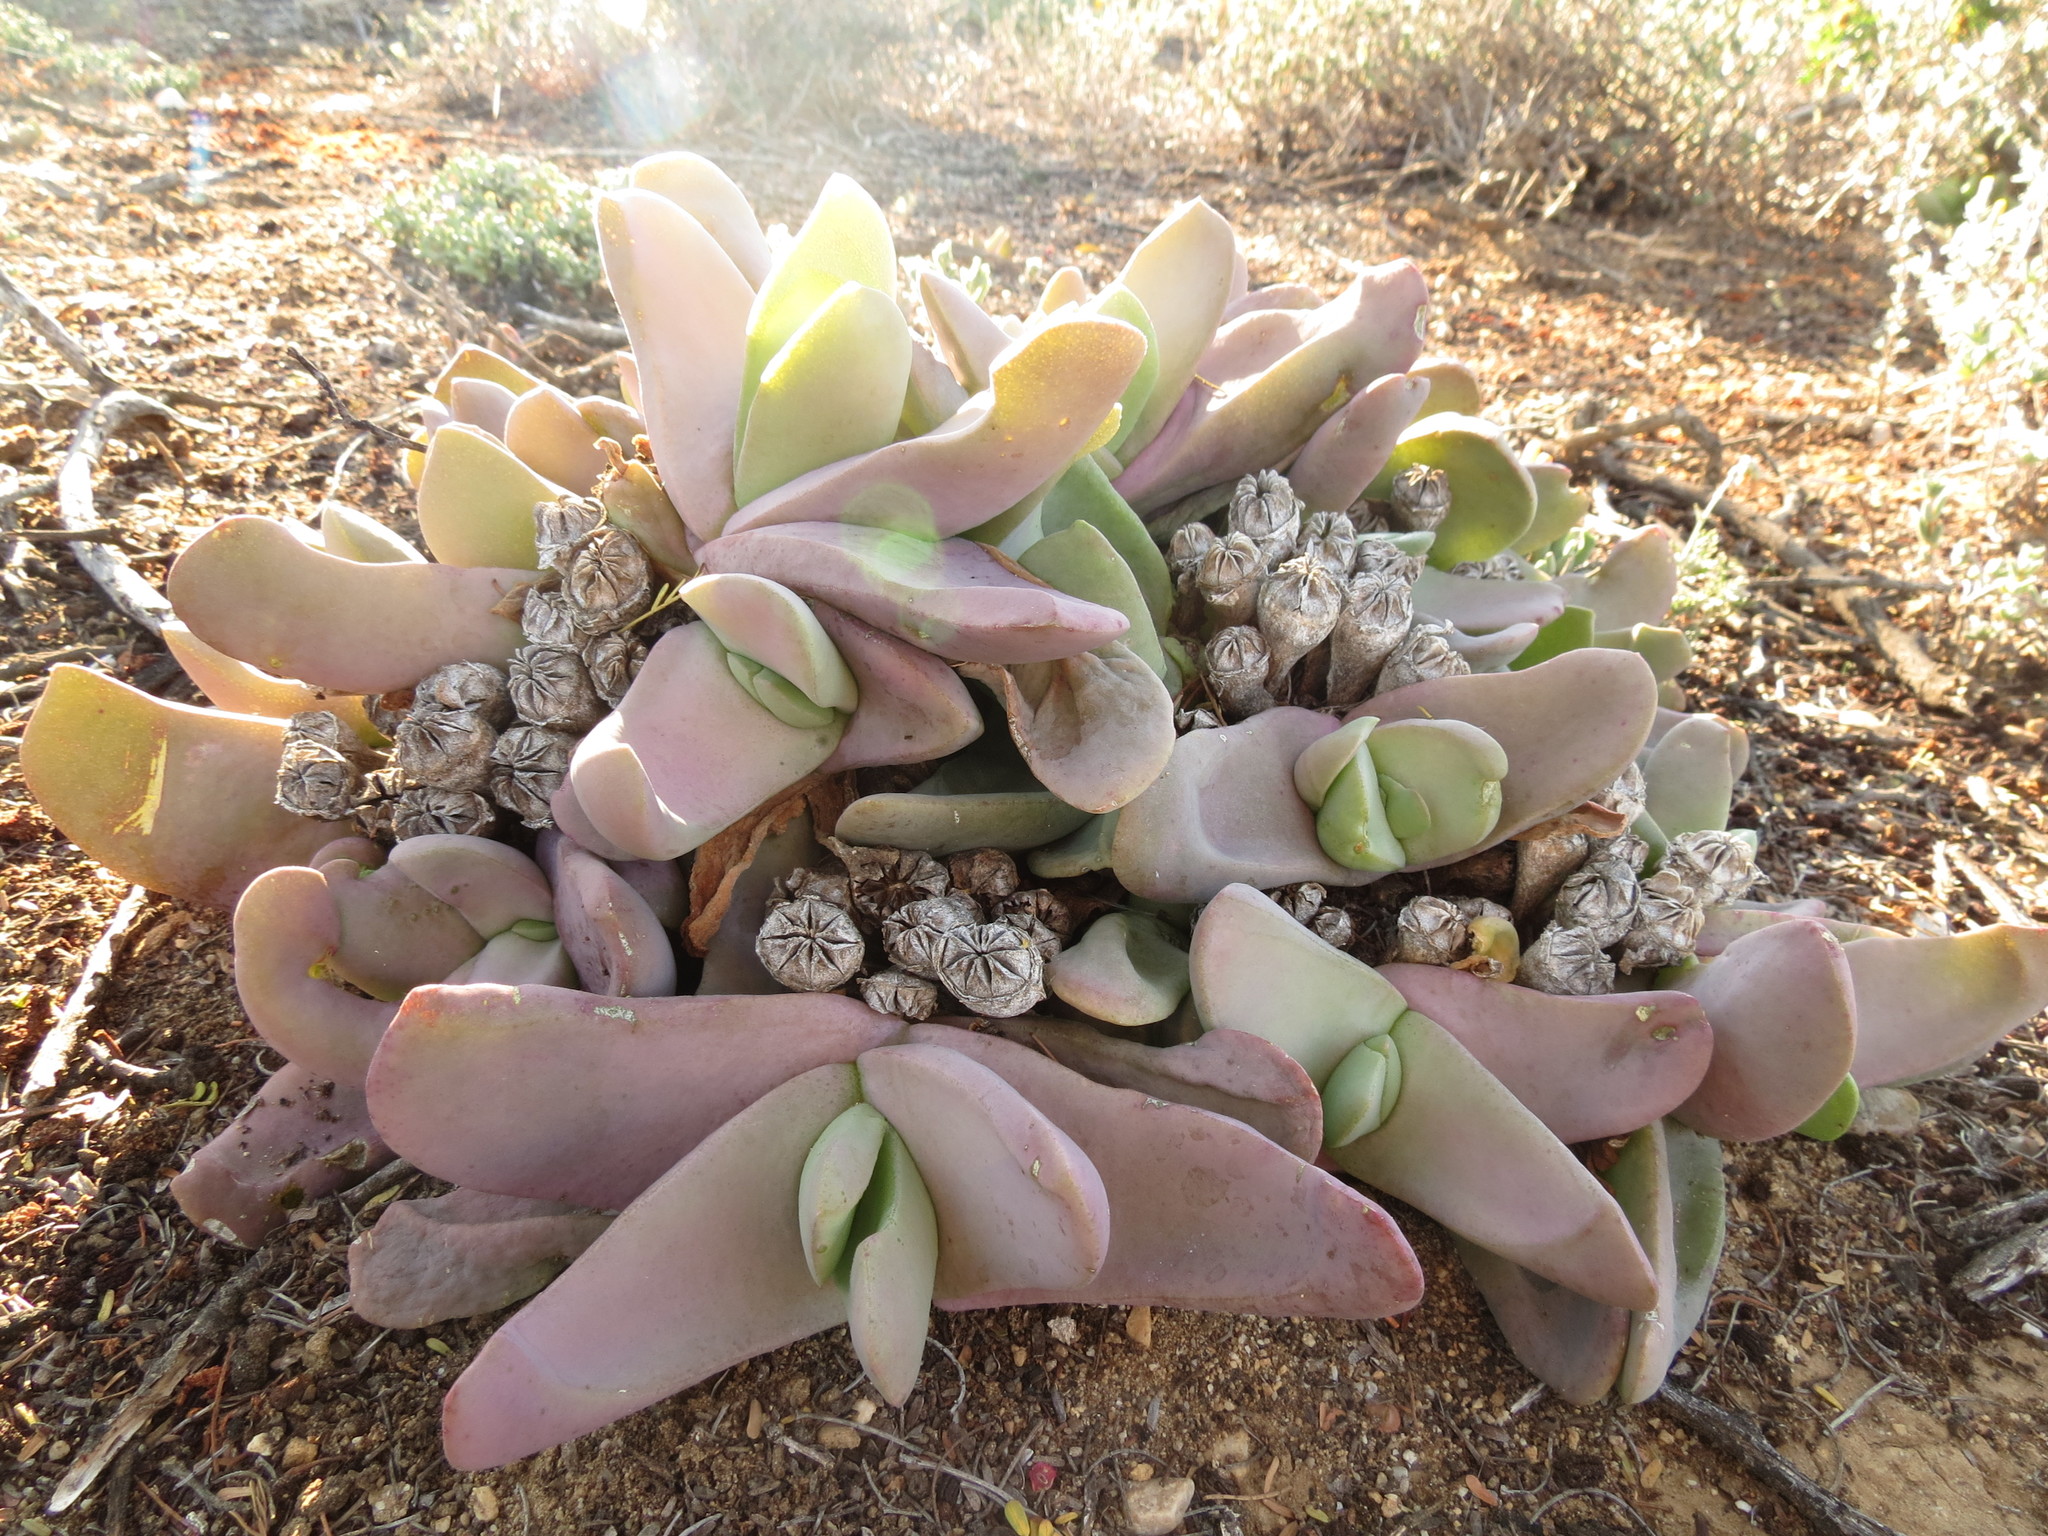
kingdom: Plantae
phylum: Tracheophyta
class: Magnoliopsida
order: Caryophyllales
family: Aizoaceae
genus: Glottiphyllum
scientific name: Glottiphyllum neilii
